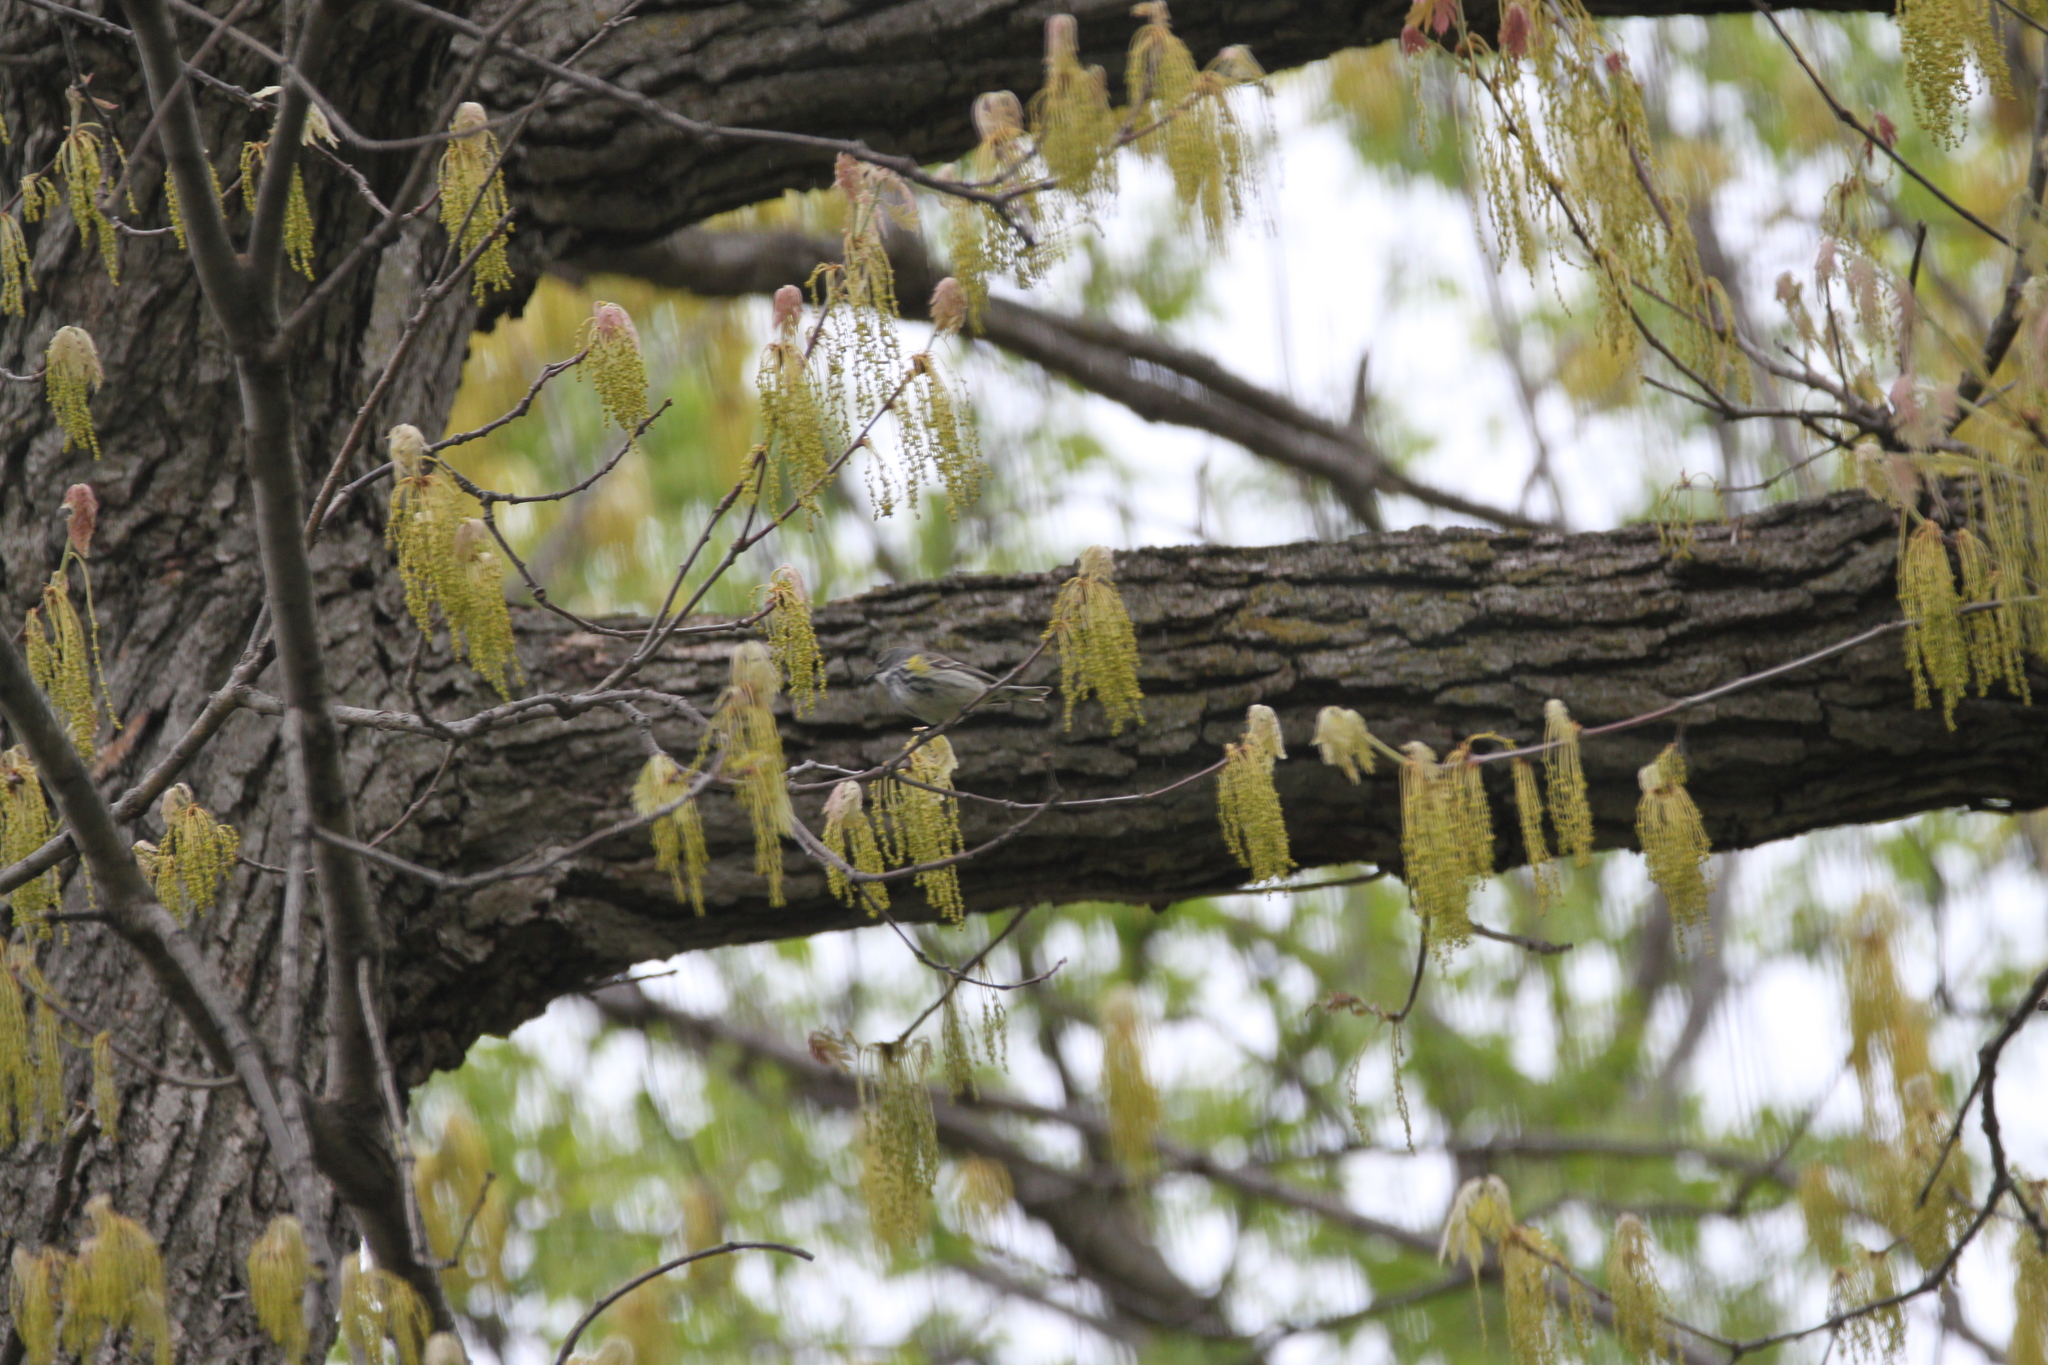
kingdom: Animalia
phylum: Chordata
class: Aves
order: Passeriformes
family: Parulidae
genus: Setophaga
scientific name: Setophaga coronata
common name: Myrtle warbler
